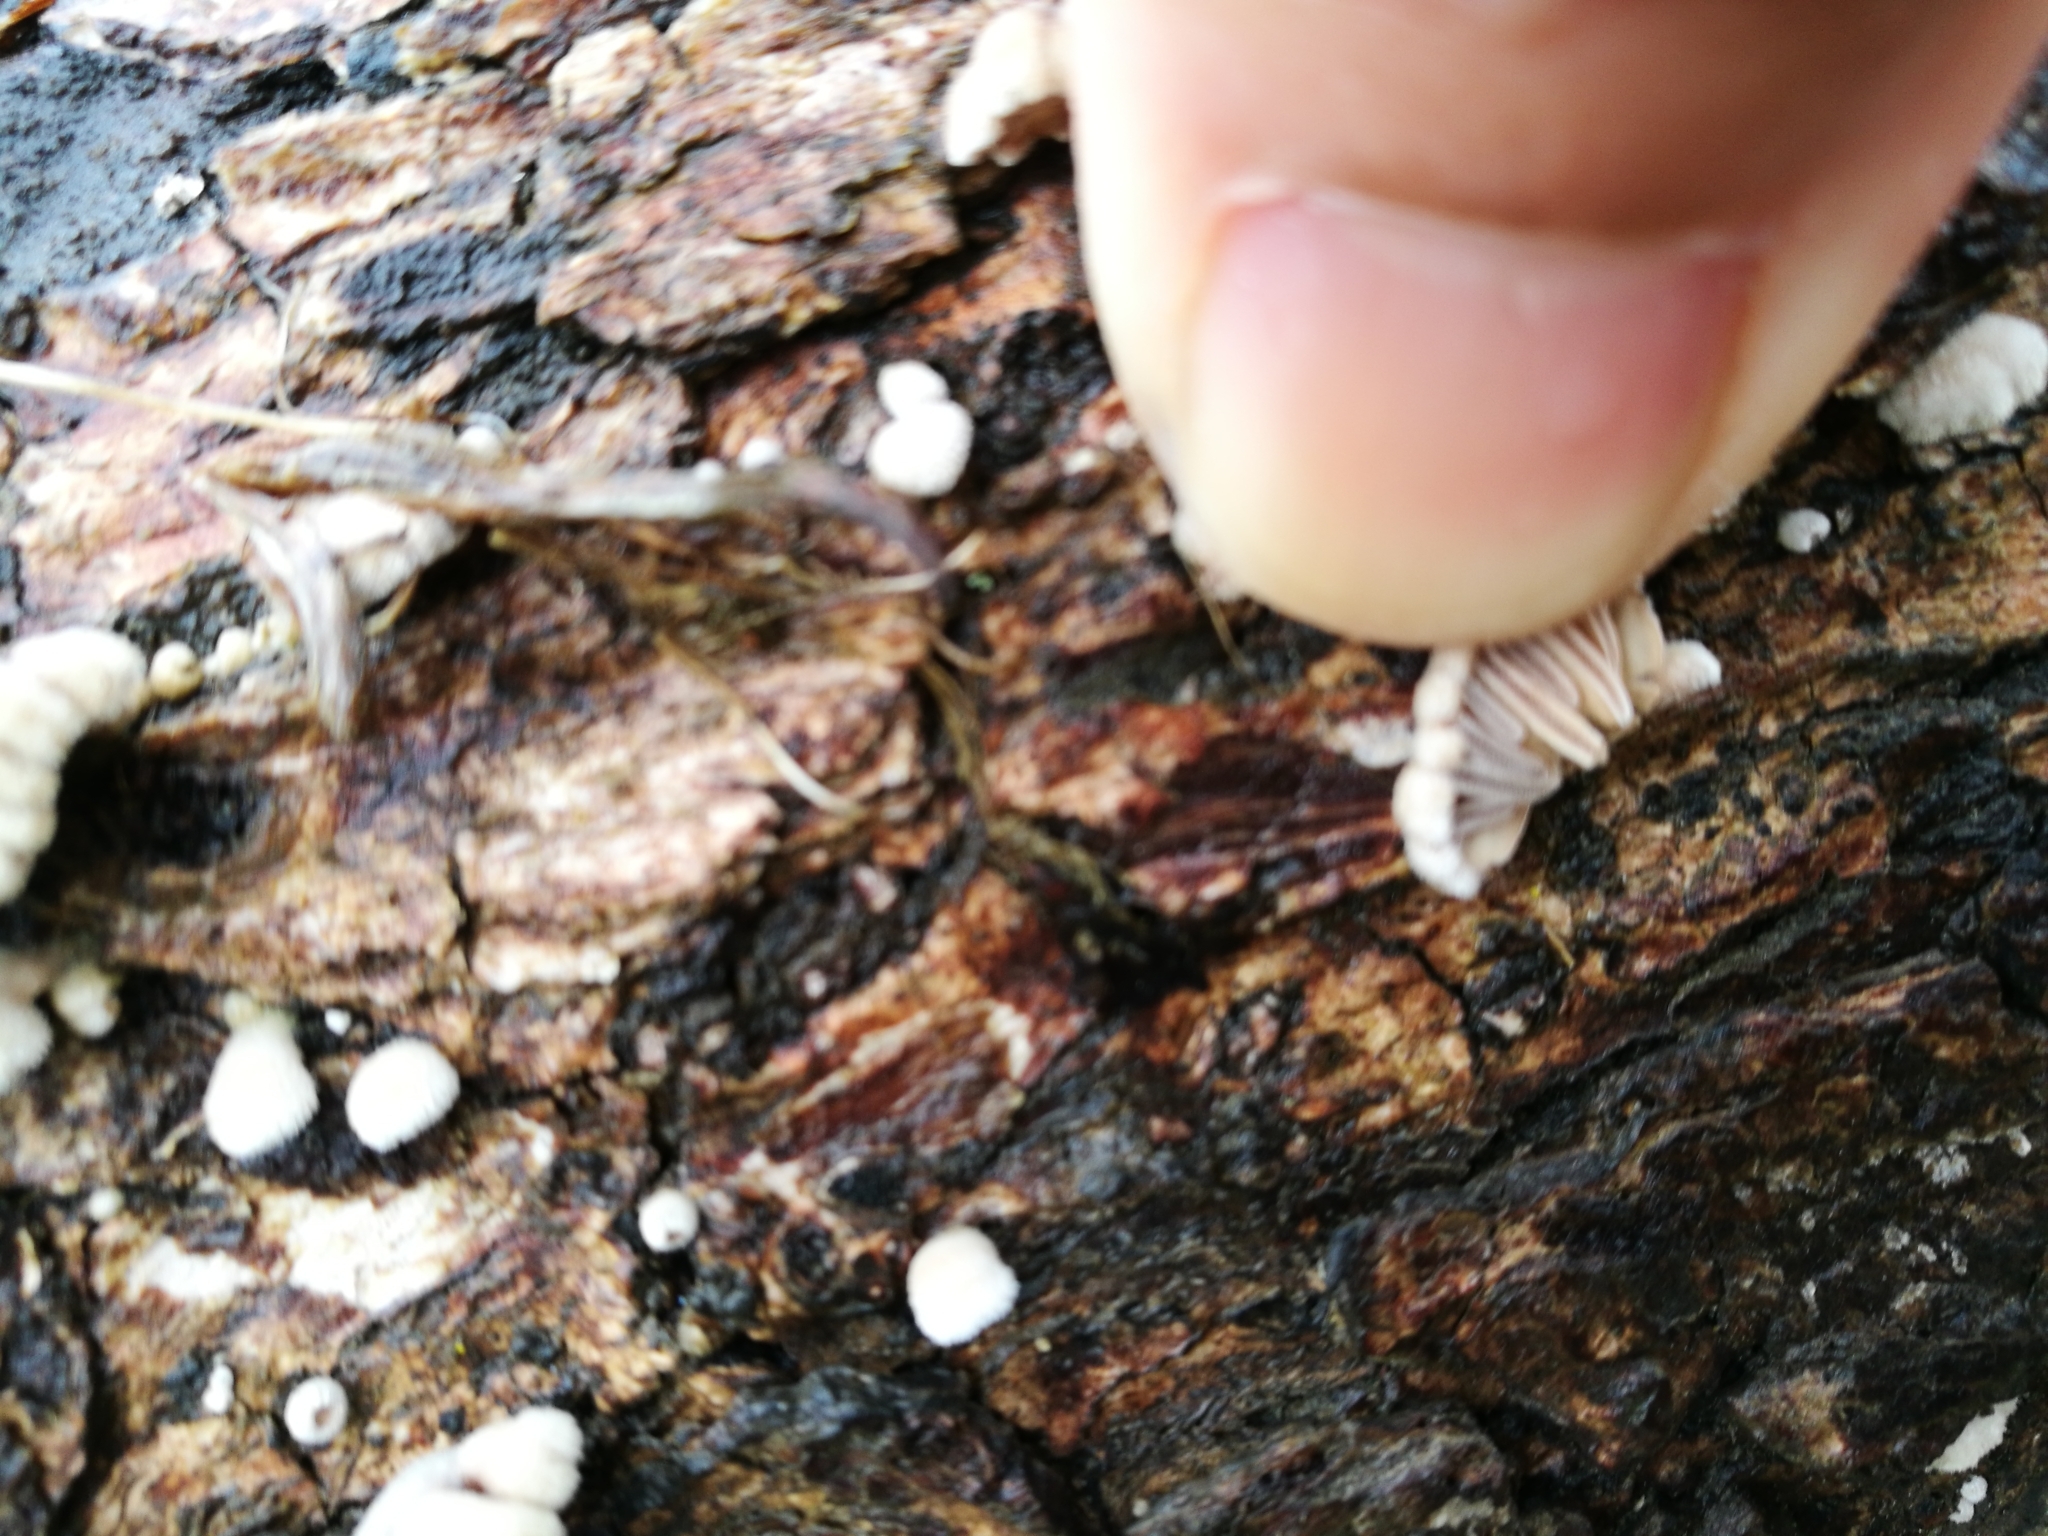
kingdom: Fungi
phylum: Basidiomycota
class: Agaricomycetes
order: Agaricales
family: Schizophyllaceae
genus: Schizophyllum
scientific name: Schizophyllum commune
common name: Common porecrust
